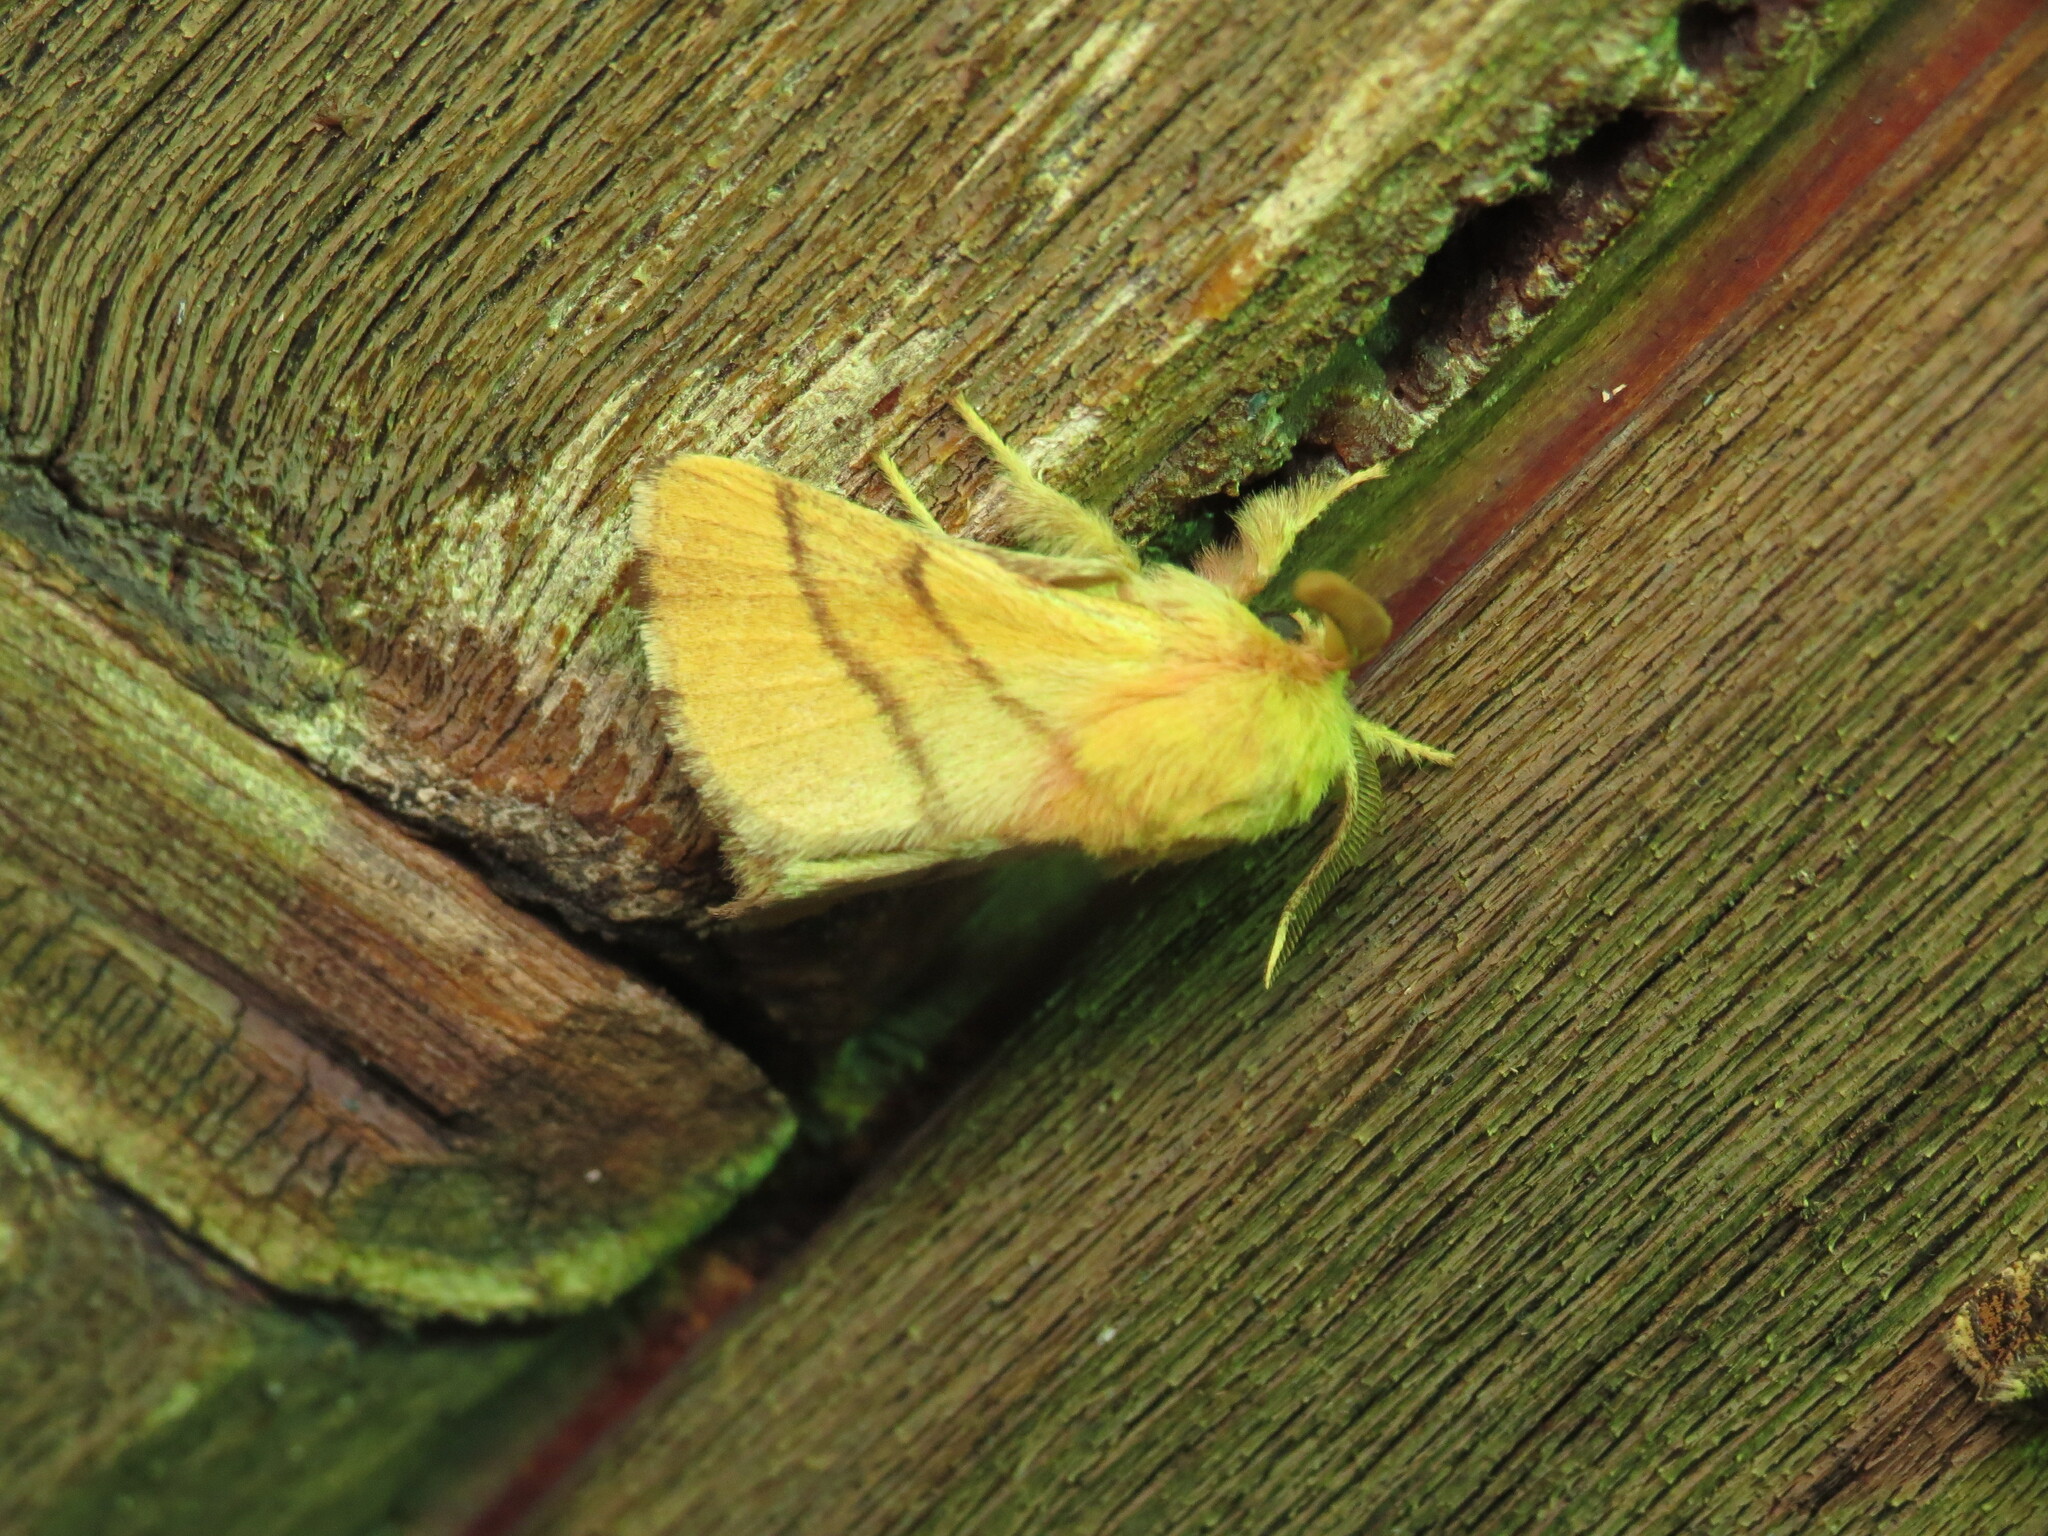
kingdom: Animalia
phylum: Arthropoda
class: Insecta
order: Lepidoptera
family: Lasiocampidae
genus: Malacosoma
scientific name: Malacosoma disstria
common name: Forest tent caterpillar
